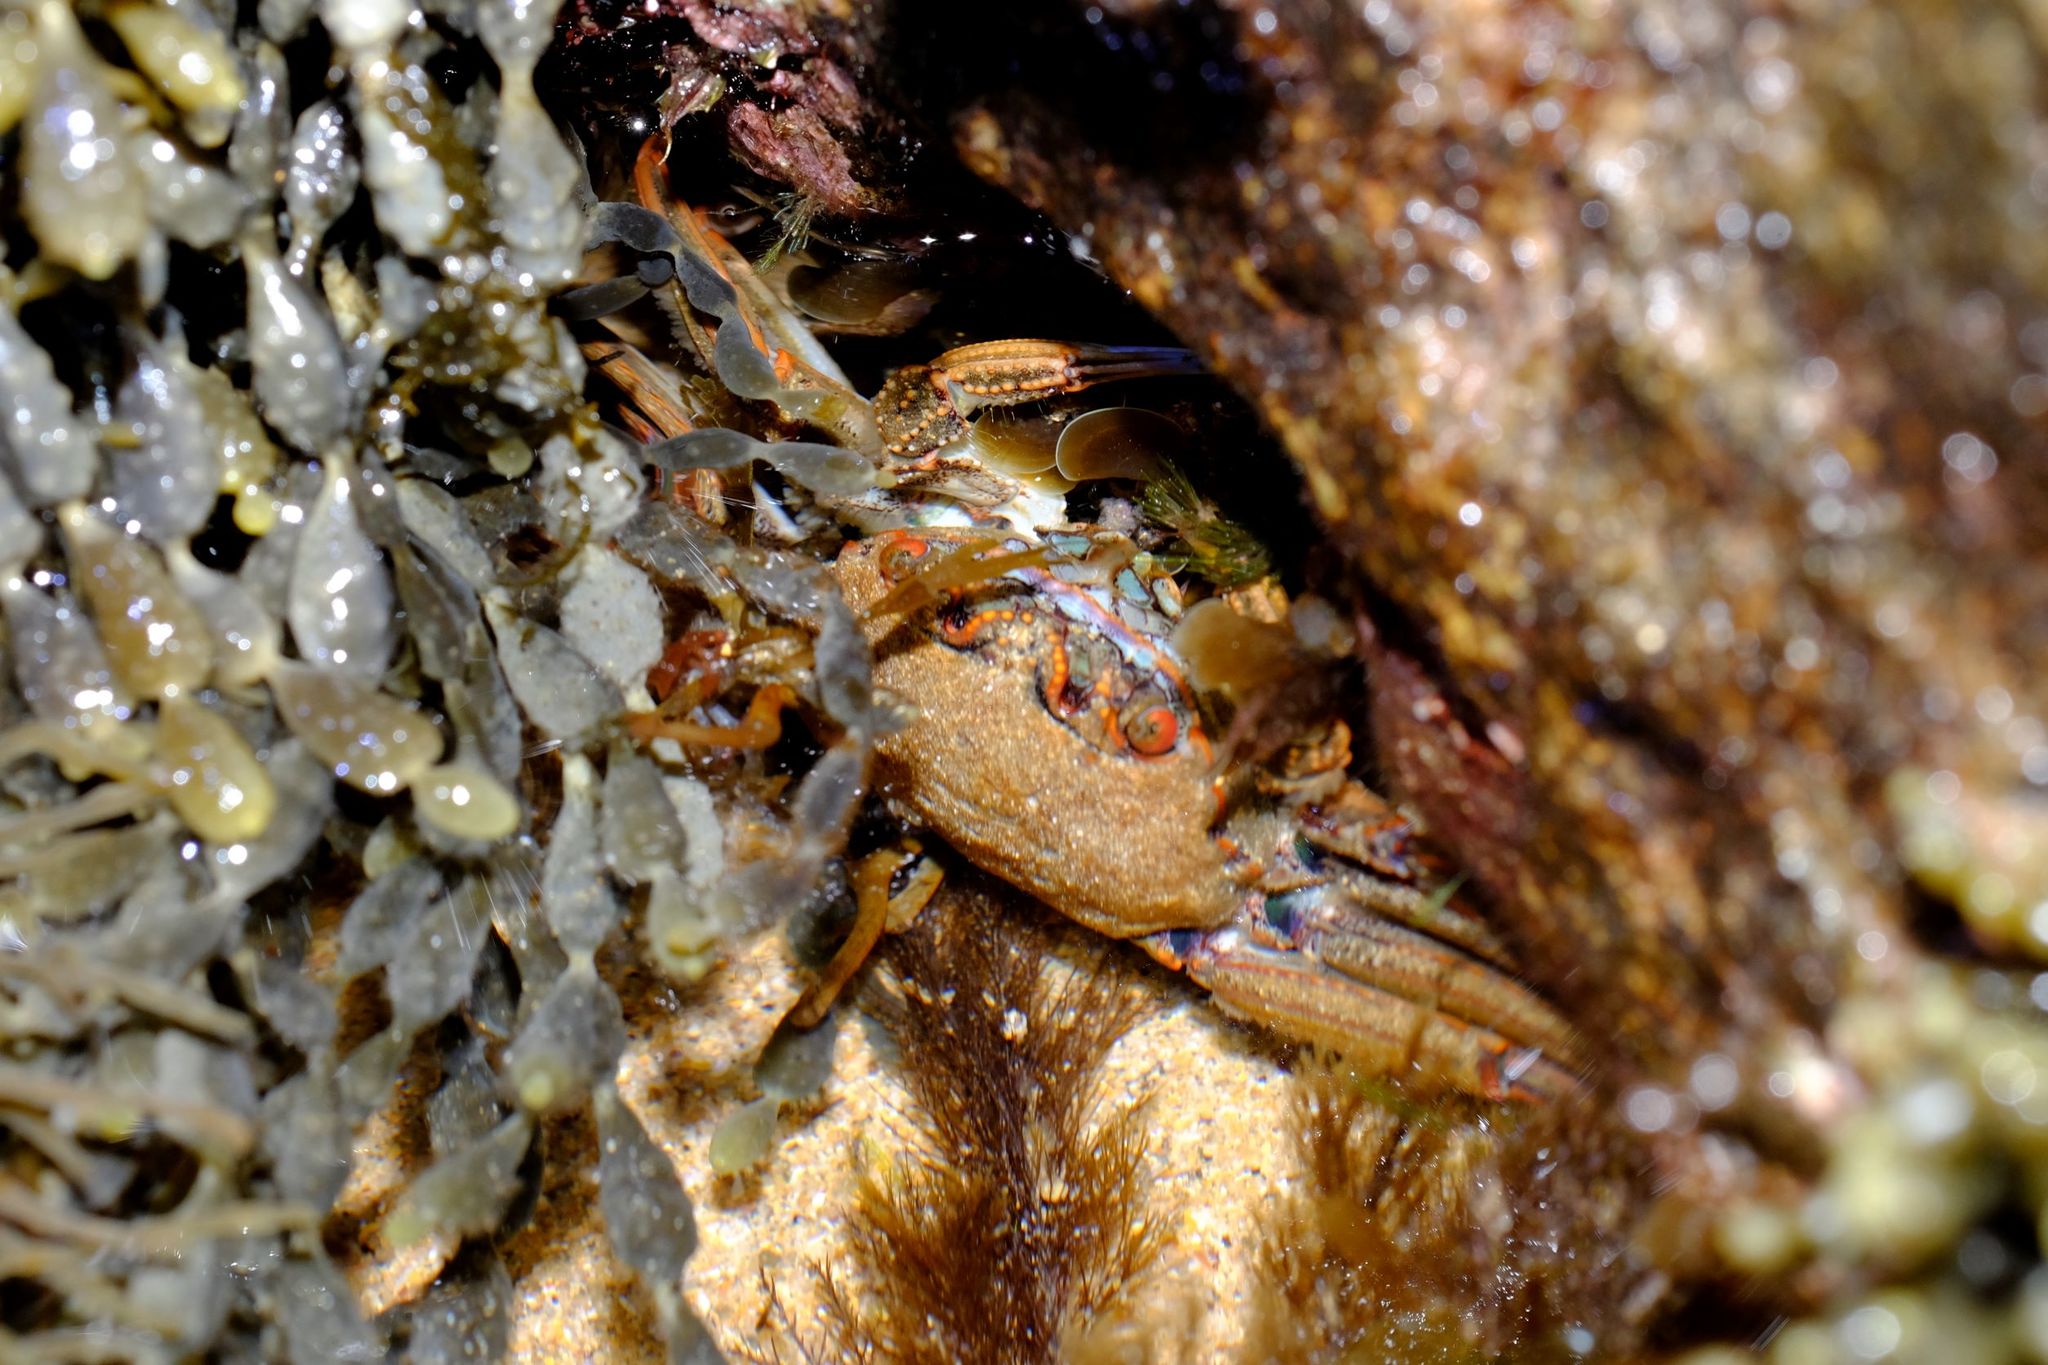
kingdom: Animalia
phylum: Arthropoda
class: Malacostraca
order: Decapoda
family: Plagusiidae
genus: Guinusia
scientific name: Guinusia chabrus
